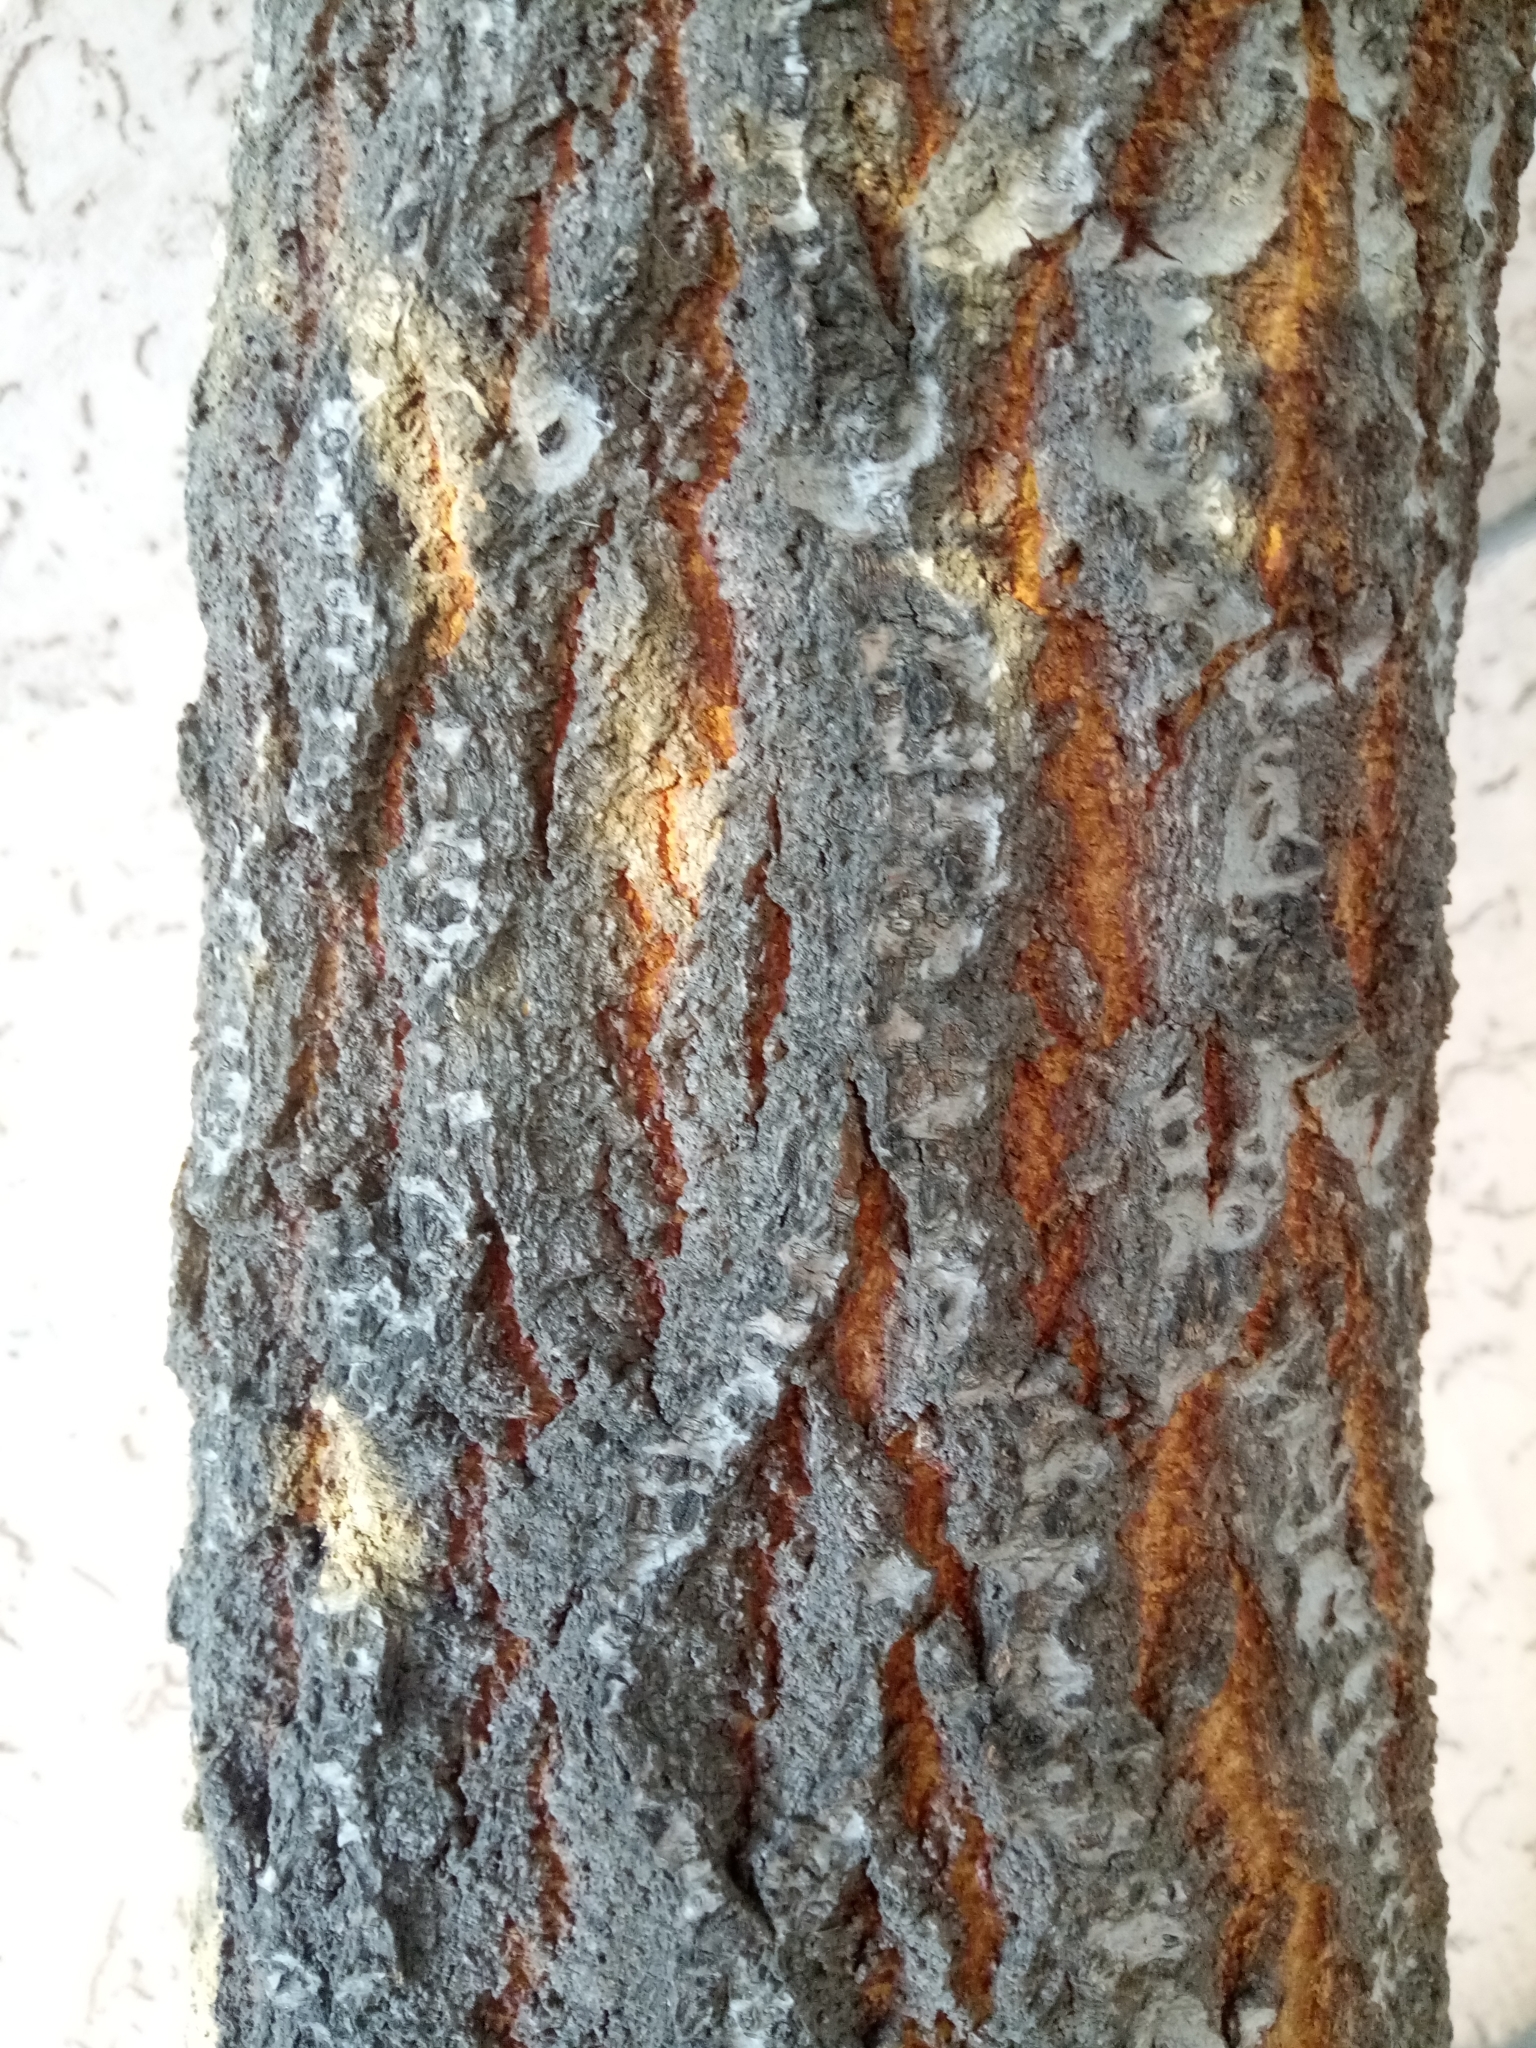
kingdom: Plantae
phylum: Tracheophyta
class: Magnoliopsida
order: Malpighiales
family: Salicaceae
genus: Populus
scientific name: Populus alba
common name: White poplar
